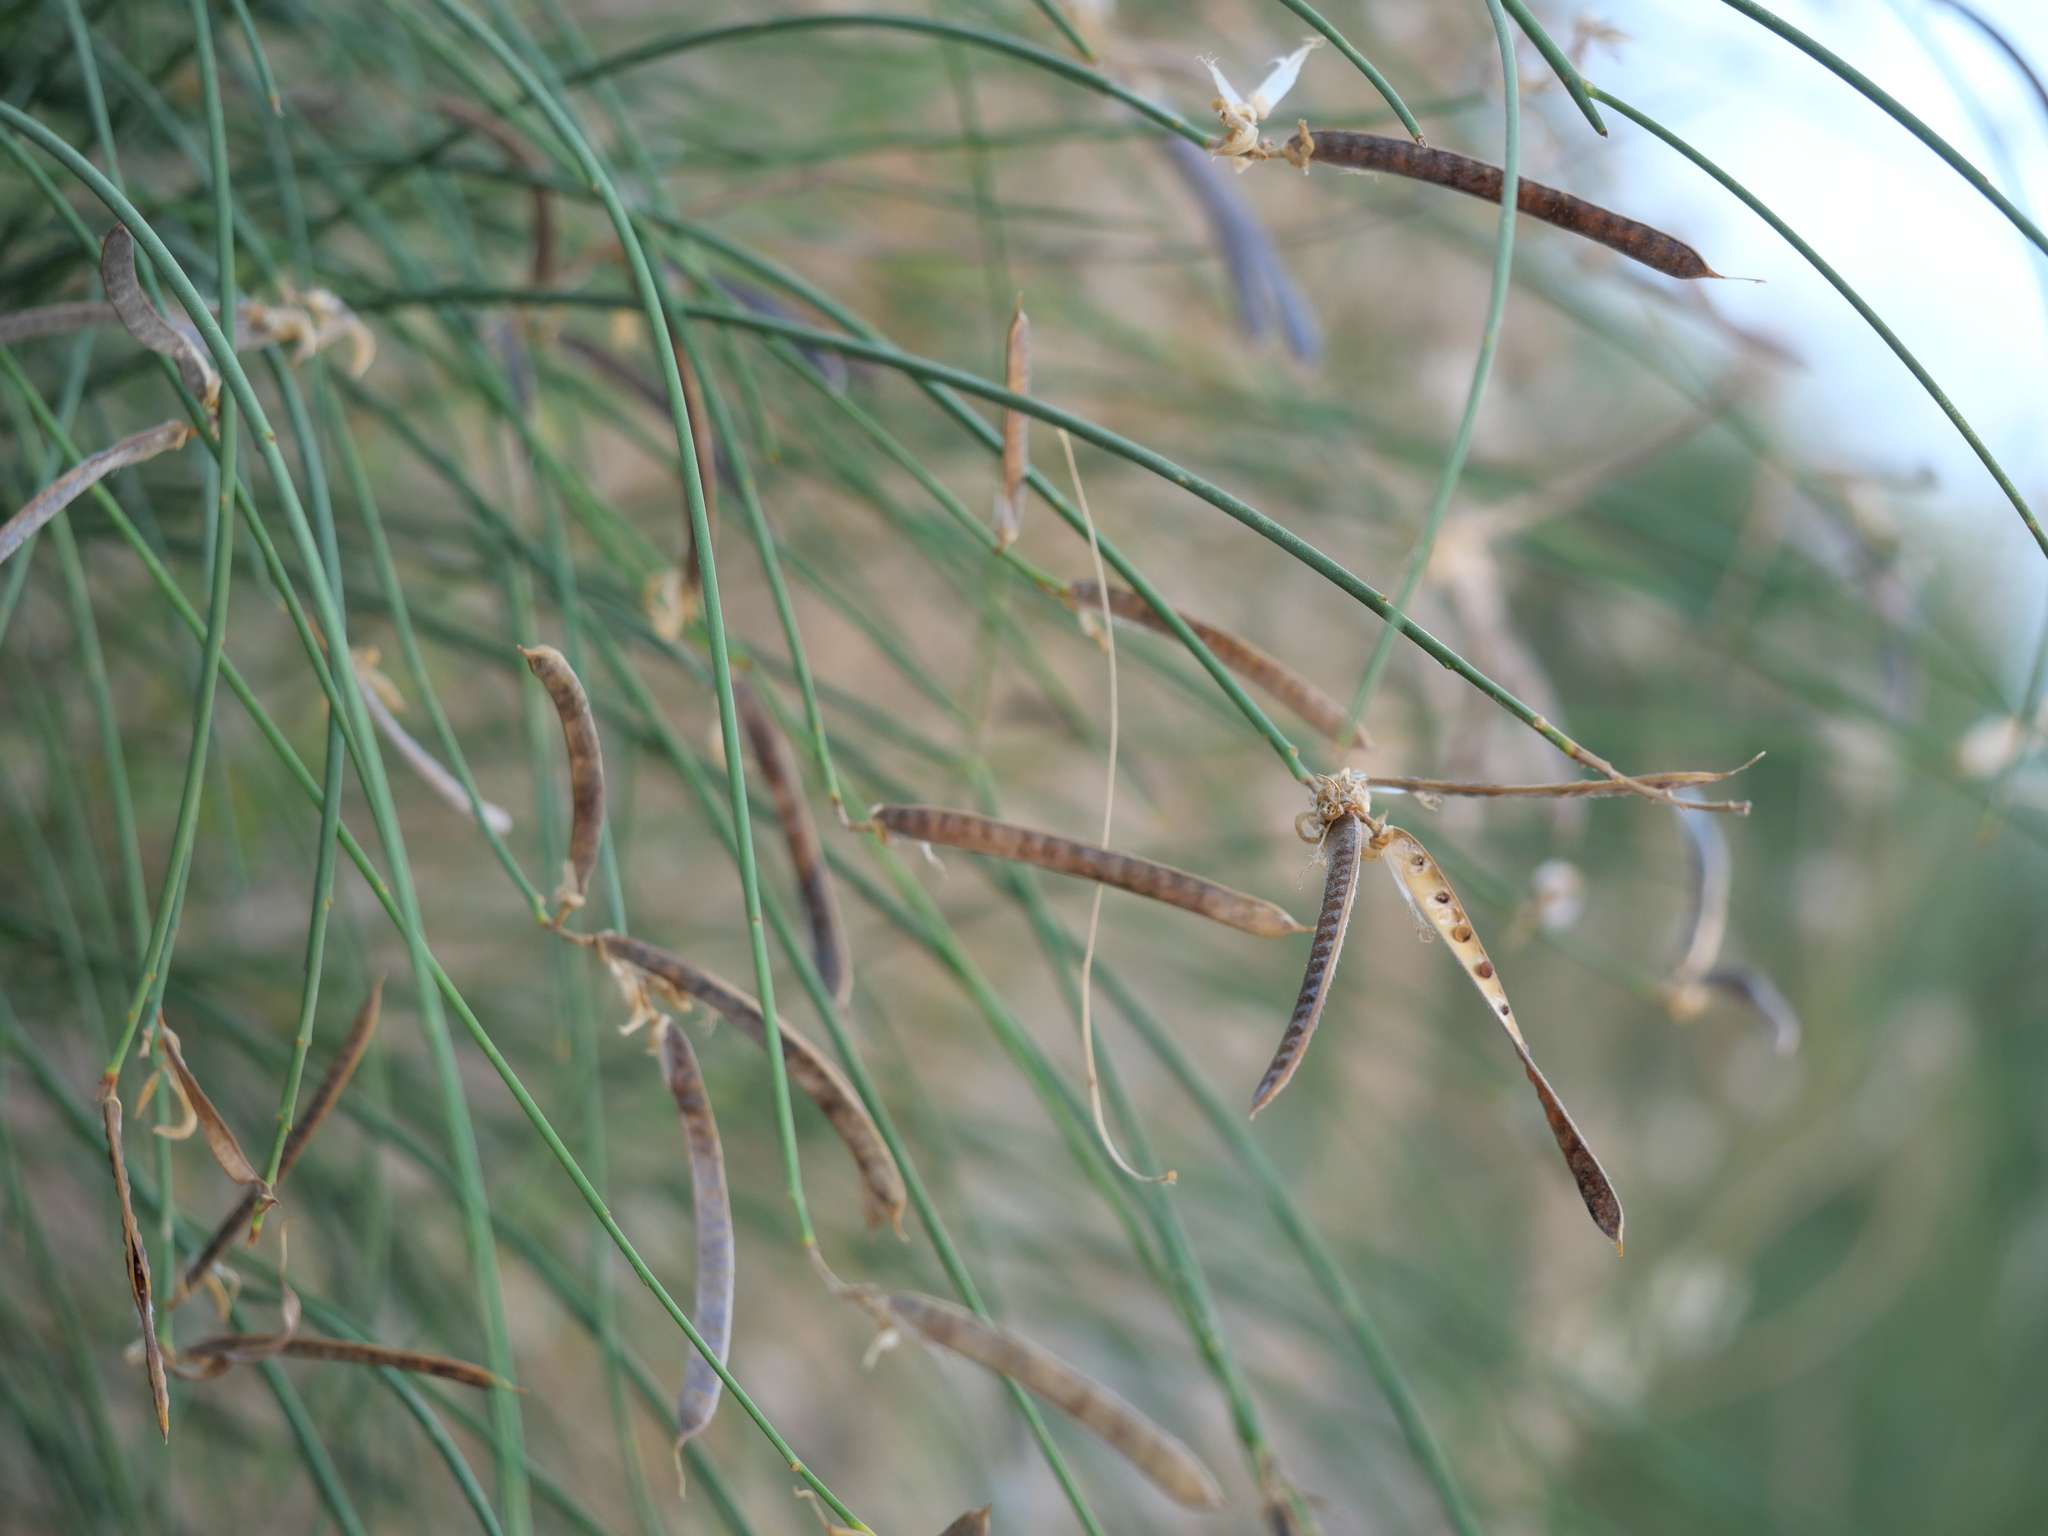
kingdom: Plantae
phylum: Tracheophyta
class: Magnoliopsida
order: Fabales
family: Fabaceae
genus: Spartium
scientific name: Spartium junceum
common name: Spanish broom
